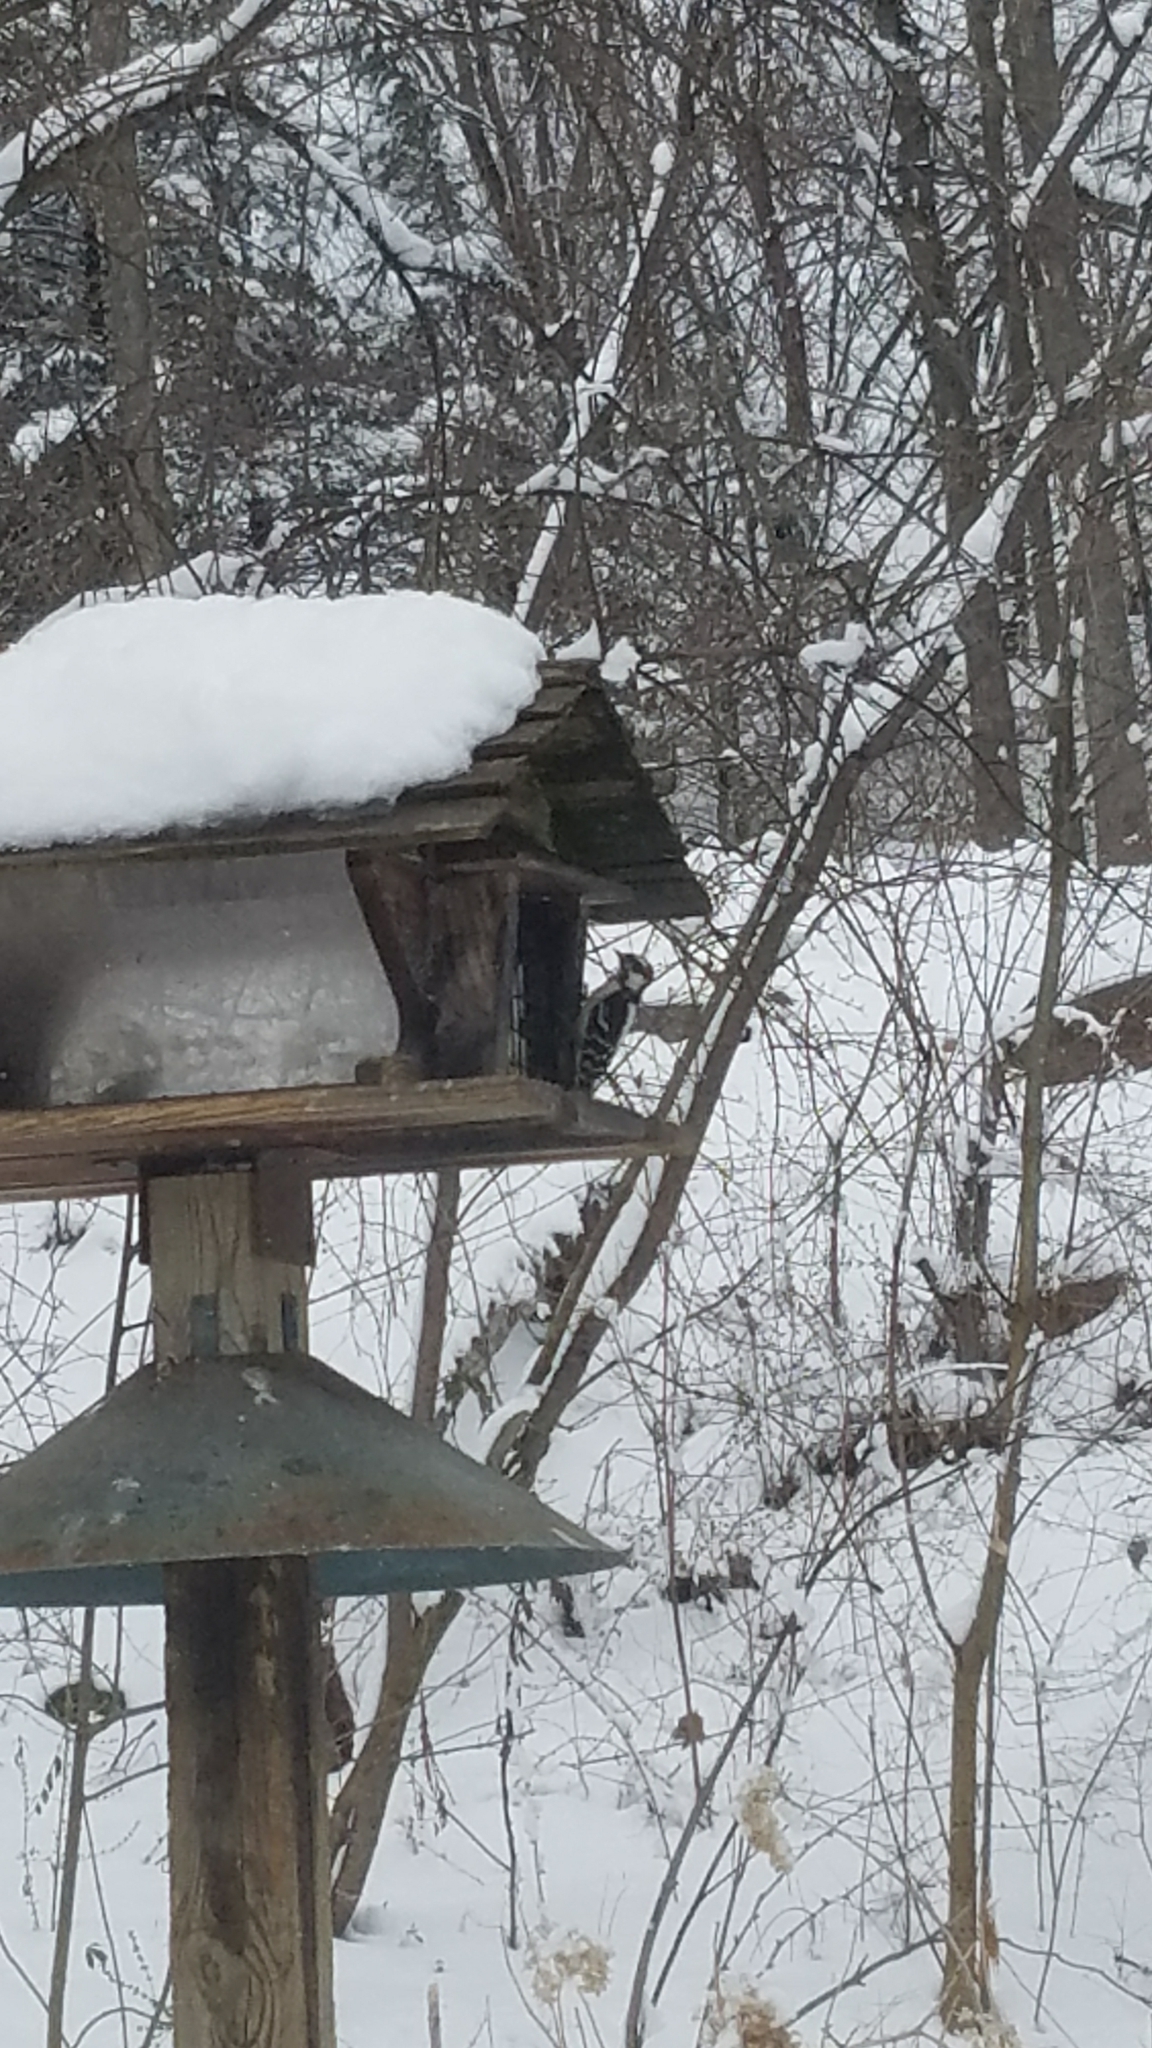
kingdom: Animalia
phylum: Chordata
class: Aves
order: Piciformes
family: Picidae
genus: Dryobates
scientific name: Dryobates pubescens
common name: Downy woodpecker
